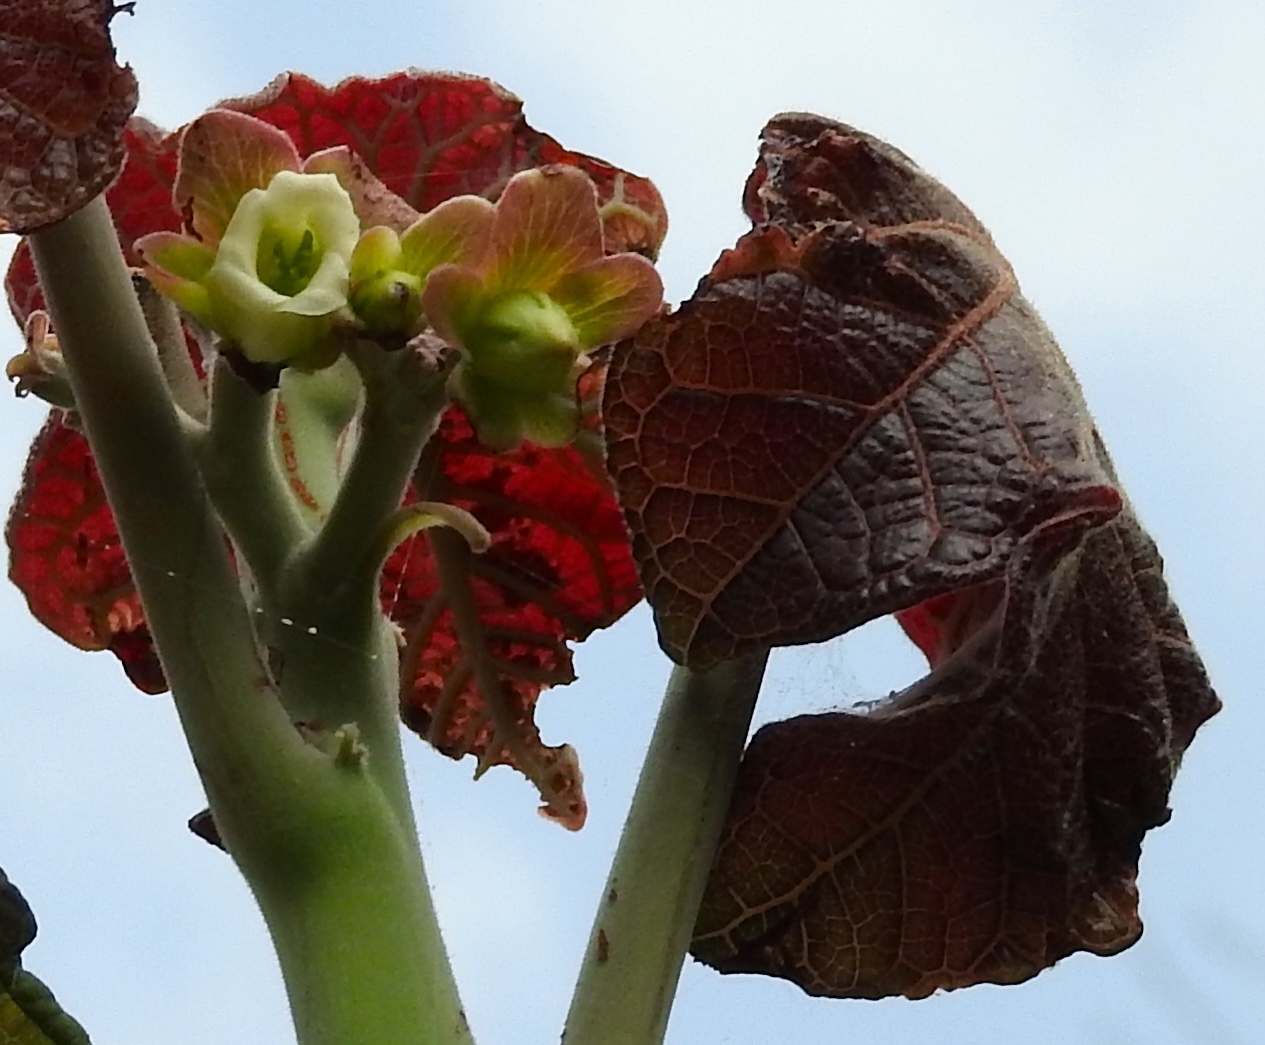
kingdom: Plantae
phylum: Tracheophyta
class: Magnoliopsida
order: Malpighiales
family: Euphorbiaceae
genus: Jatropha
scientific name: Jatropha peltata
